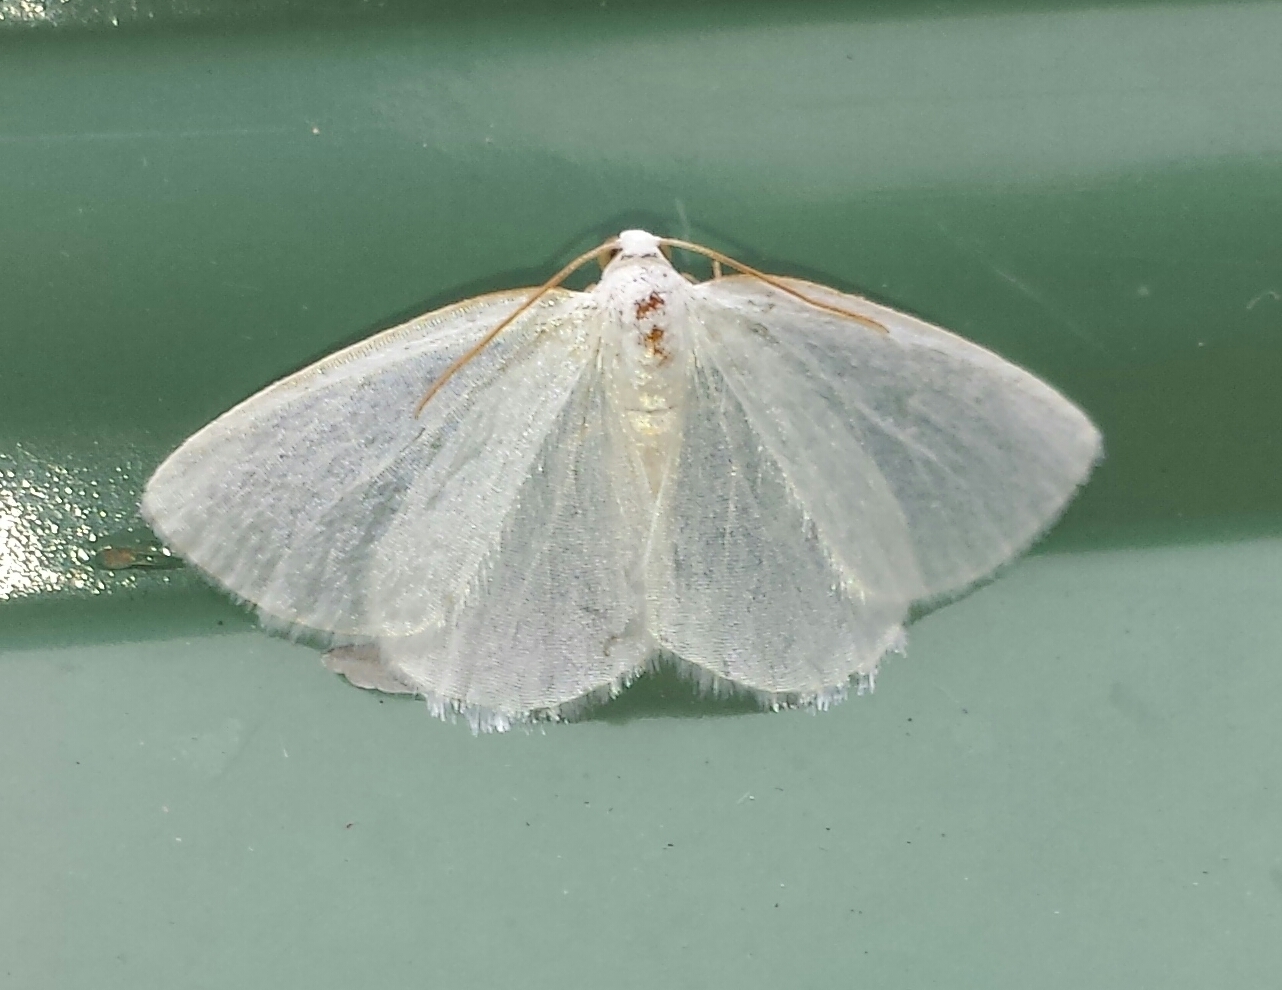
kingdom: Animalia
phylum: Arthropoda
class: Insecta
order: Lepidoptera
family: Geometridae
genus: Lomographa
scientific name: Lomographa vestaliata
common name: White spring moth
